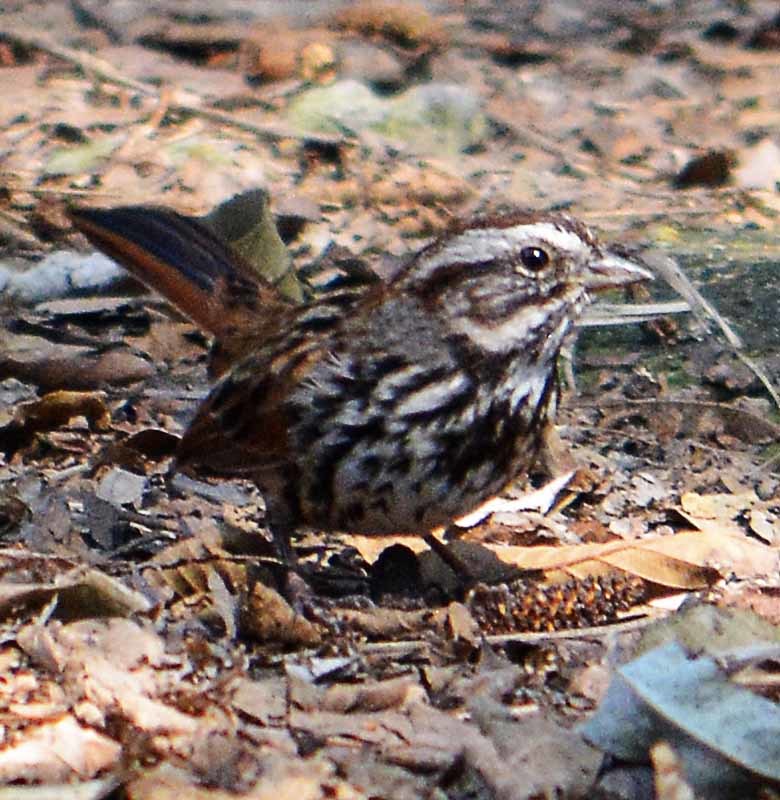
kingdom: Animalia
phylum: Chordata
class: Aves
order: Passeriformes
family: Passerellidae
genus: Melospiza
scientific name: Melospiza melodia
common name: Song sparrow
